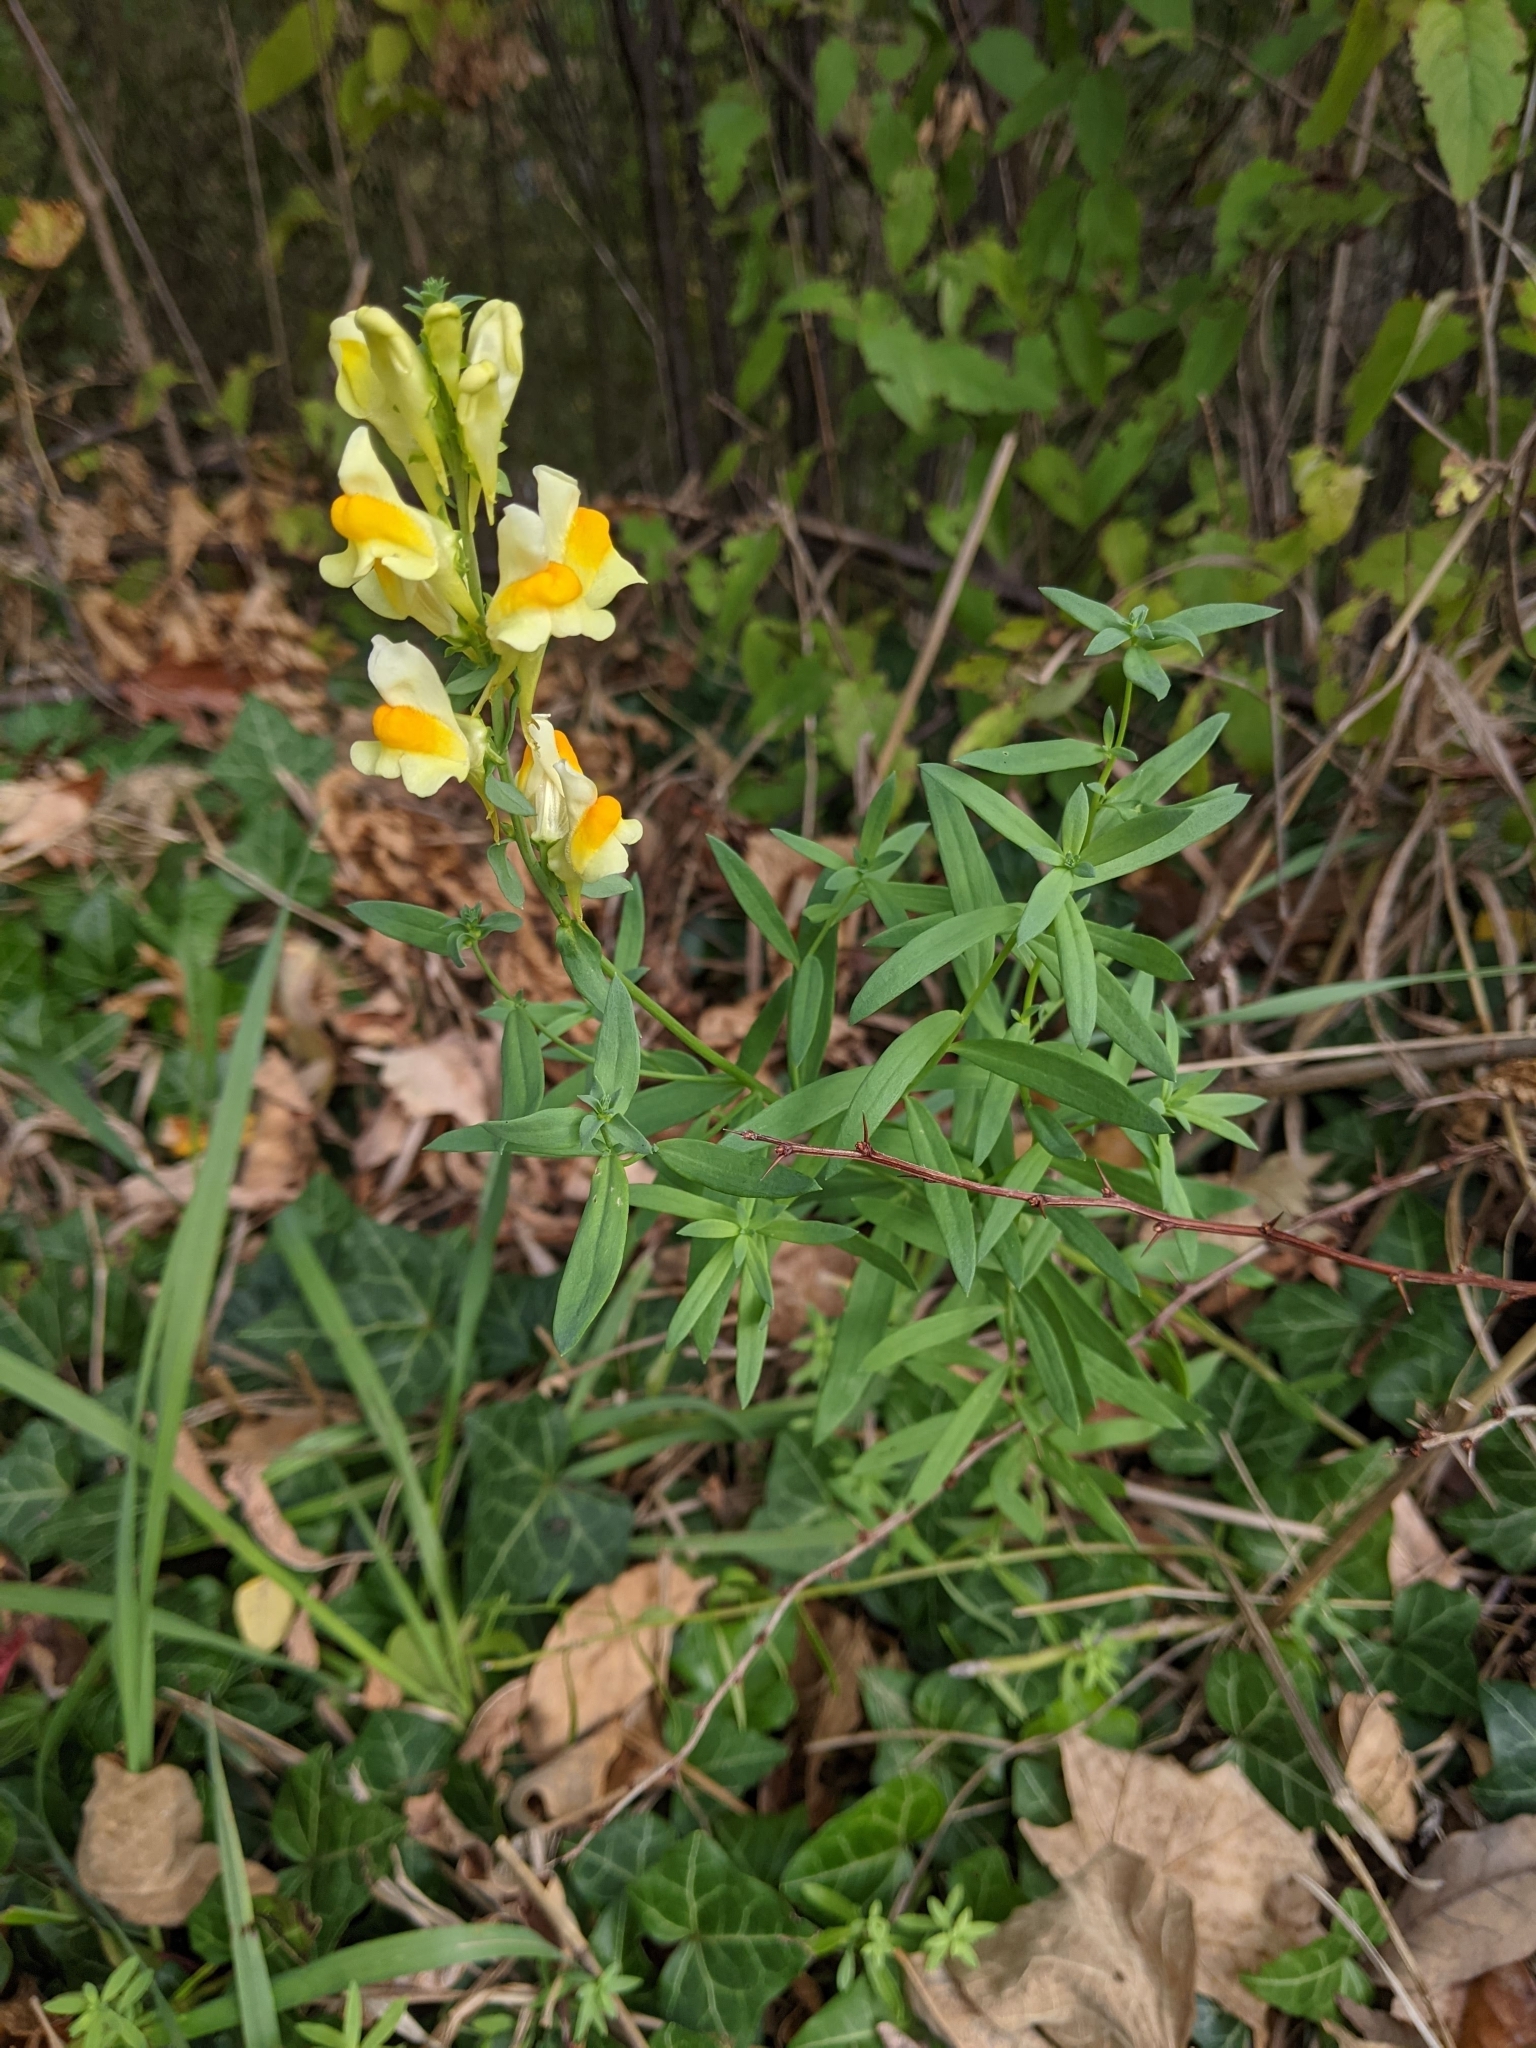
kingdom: Plantae
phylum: Tracheophyta
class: Magnoliopsida
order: Lamiales
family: Plantaginaceae
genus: Linaria
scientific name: Linaria vulgaris
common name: Butter and eggs
